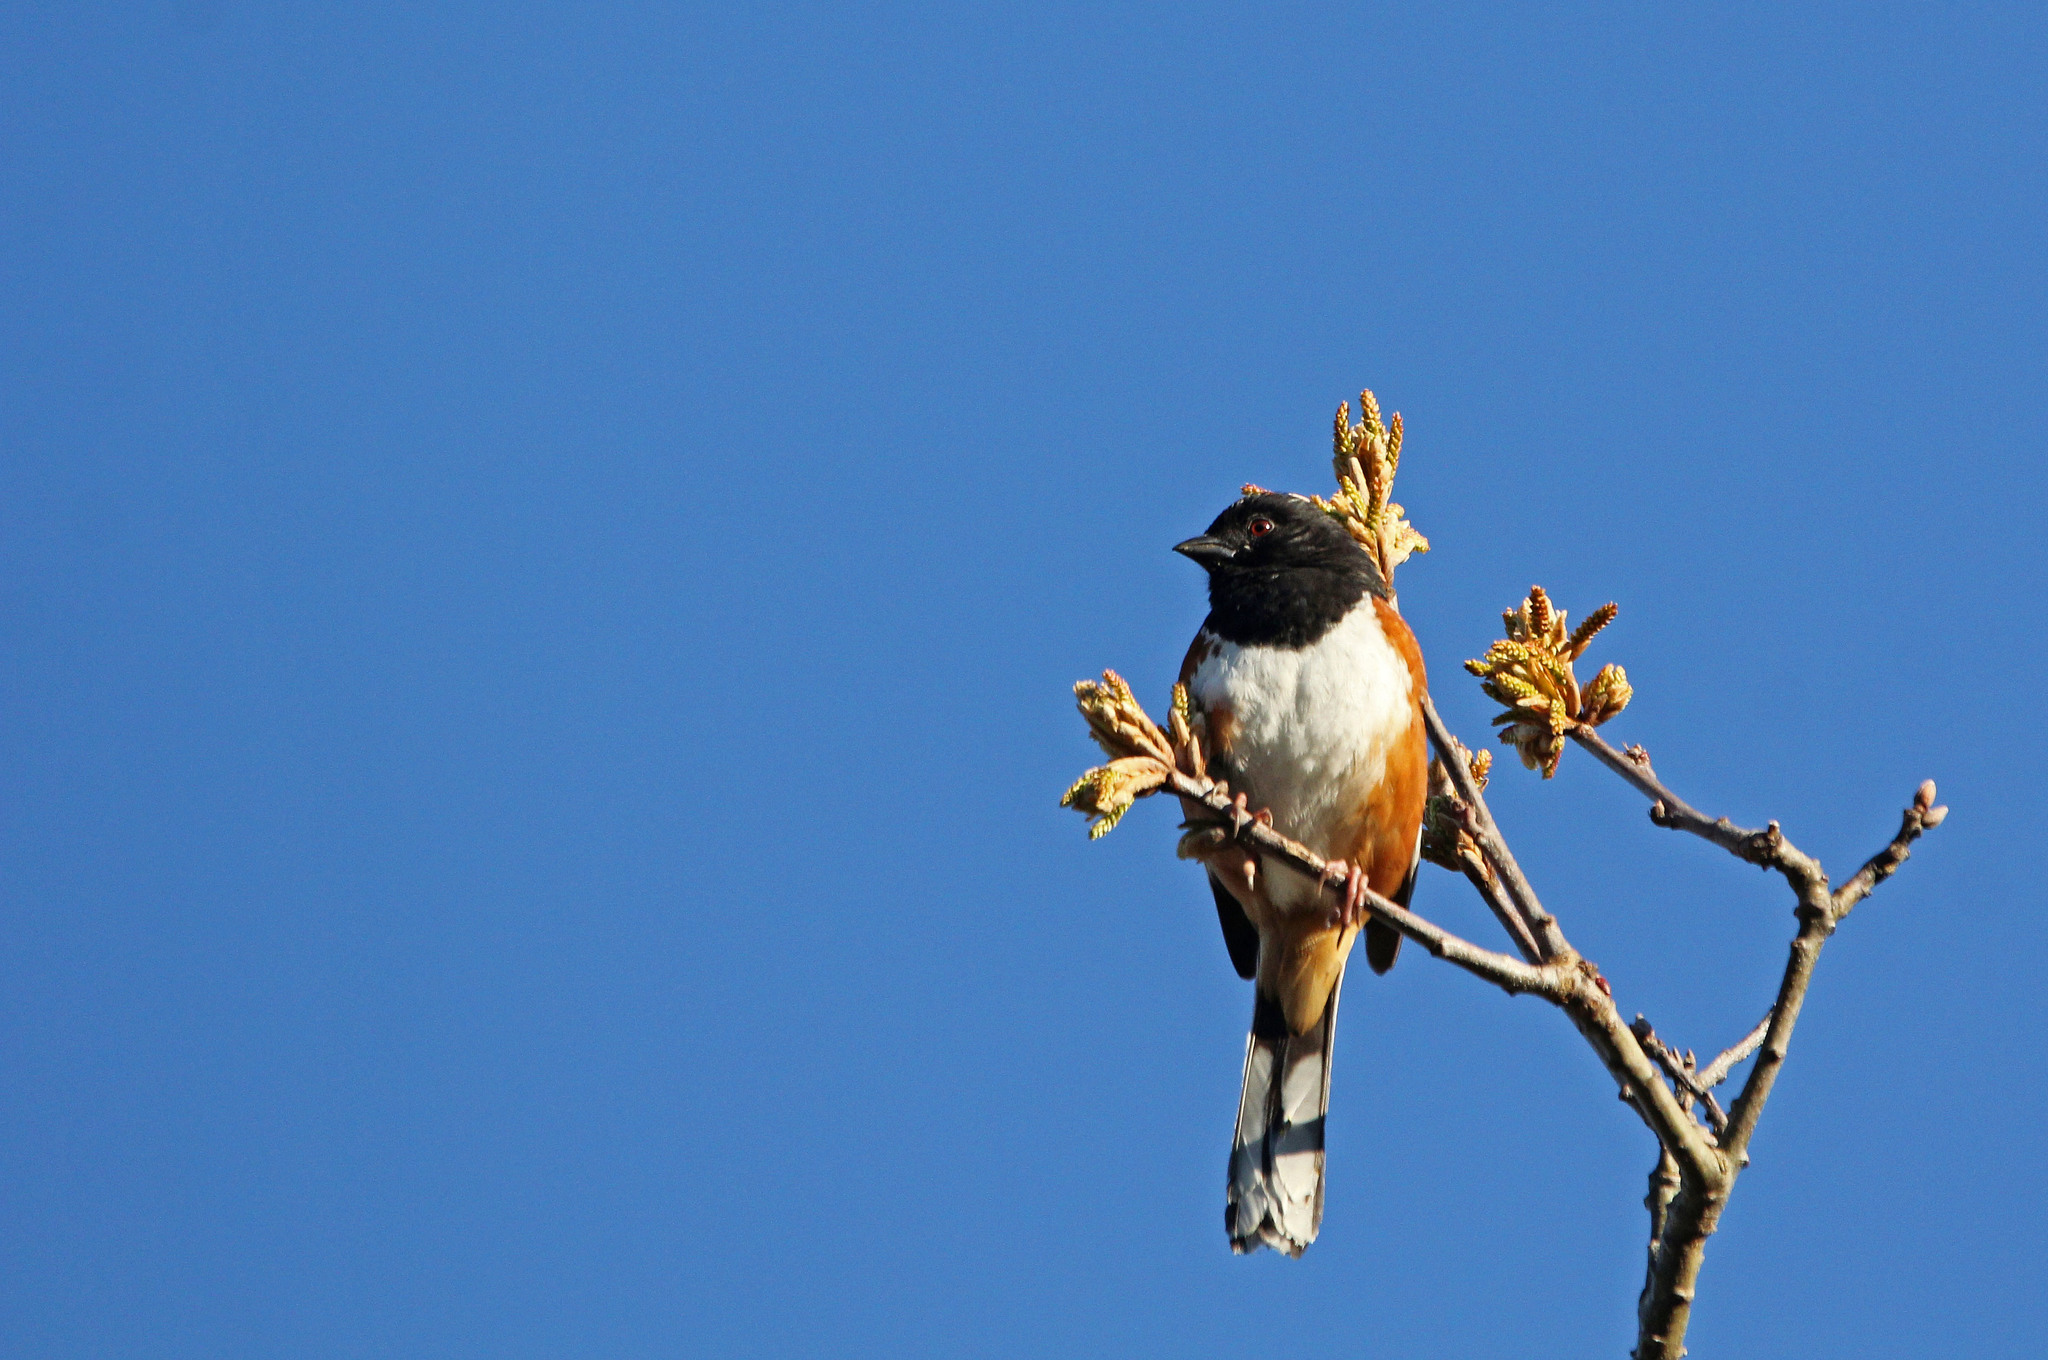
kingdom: Animalia
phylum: Chordata
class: Aves
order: Passeriformes
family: Passerellidae
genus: Pipilo
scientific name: Pipilo erythrophthalmus
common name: Eastern towhee
